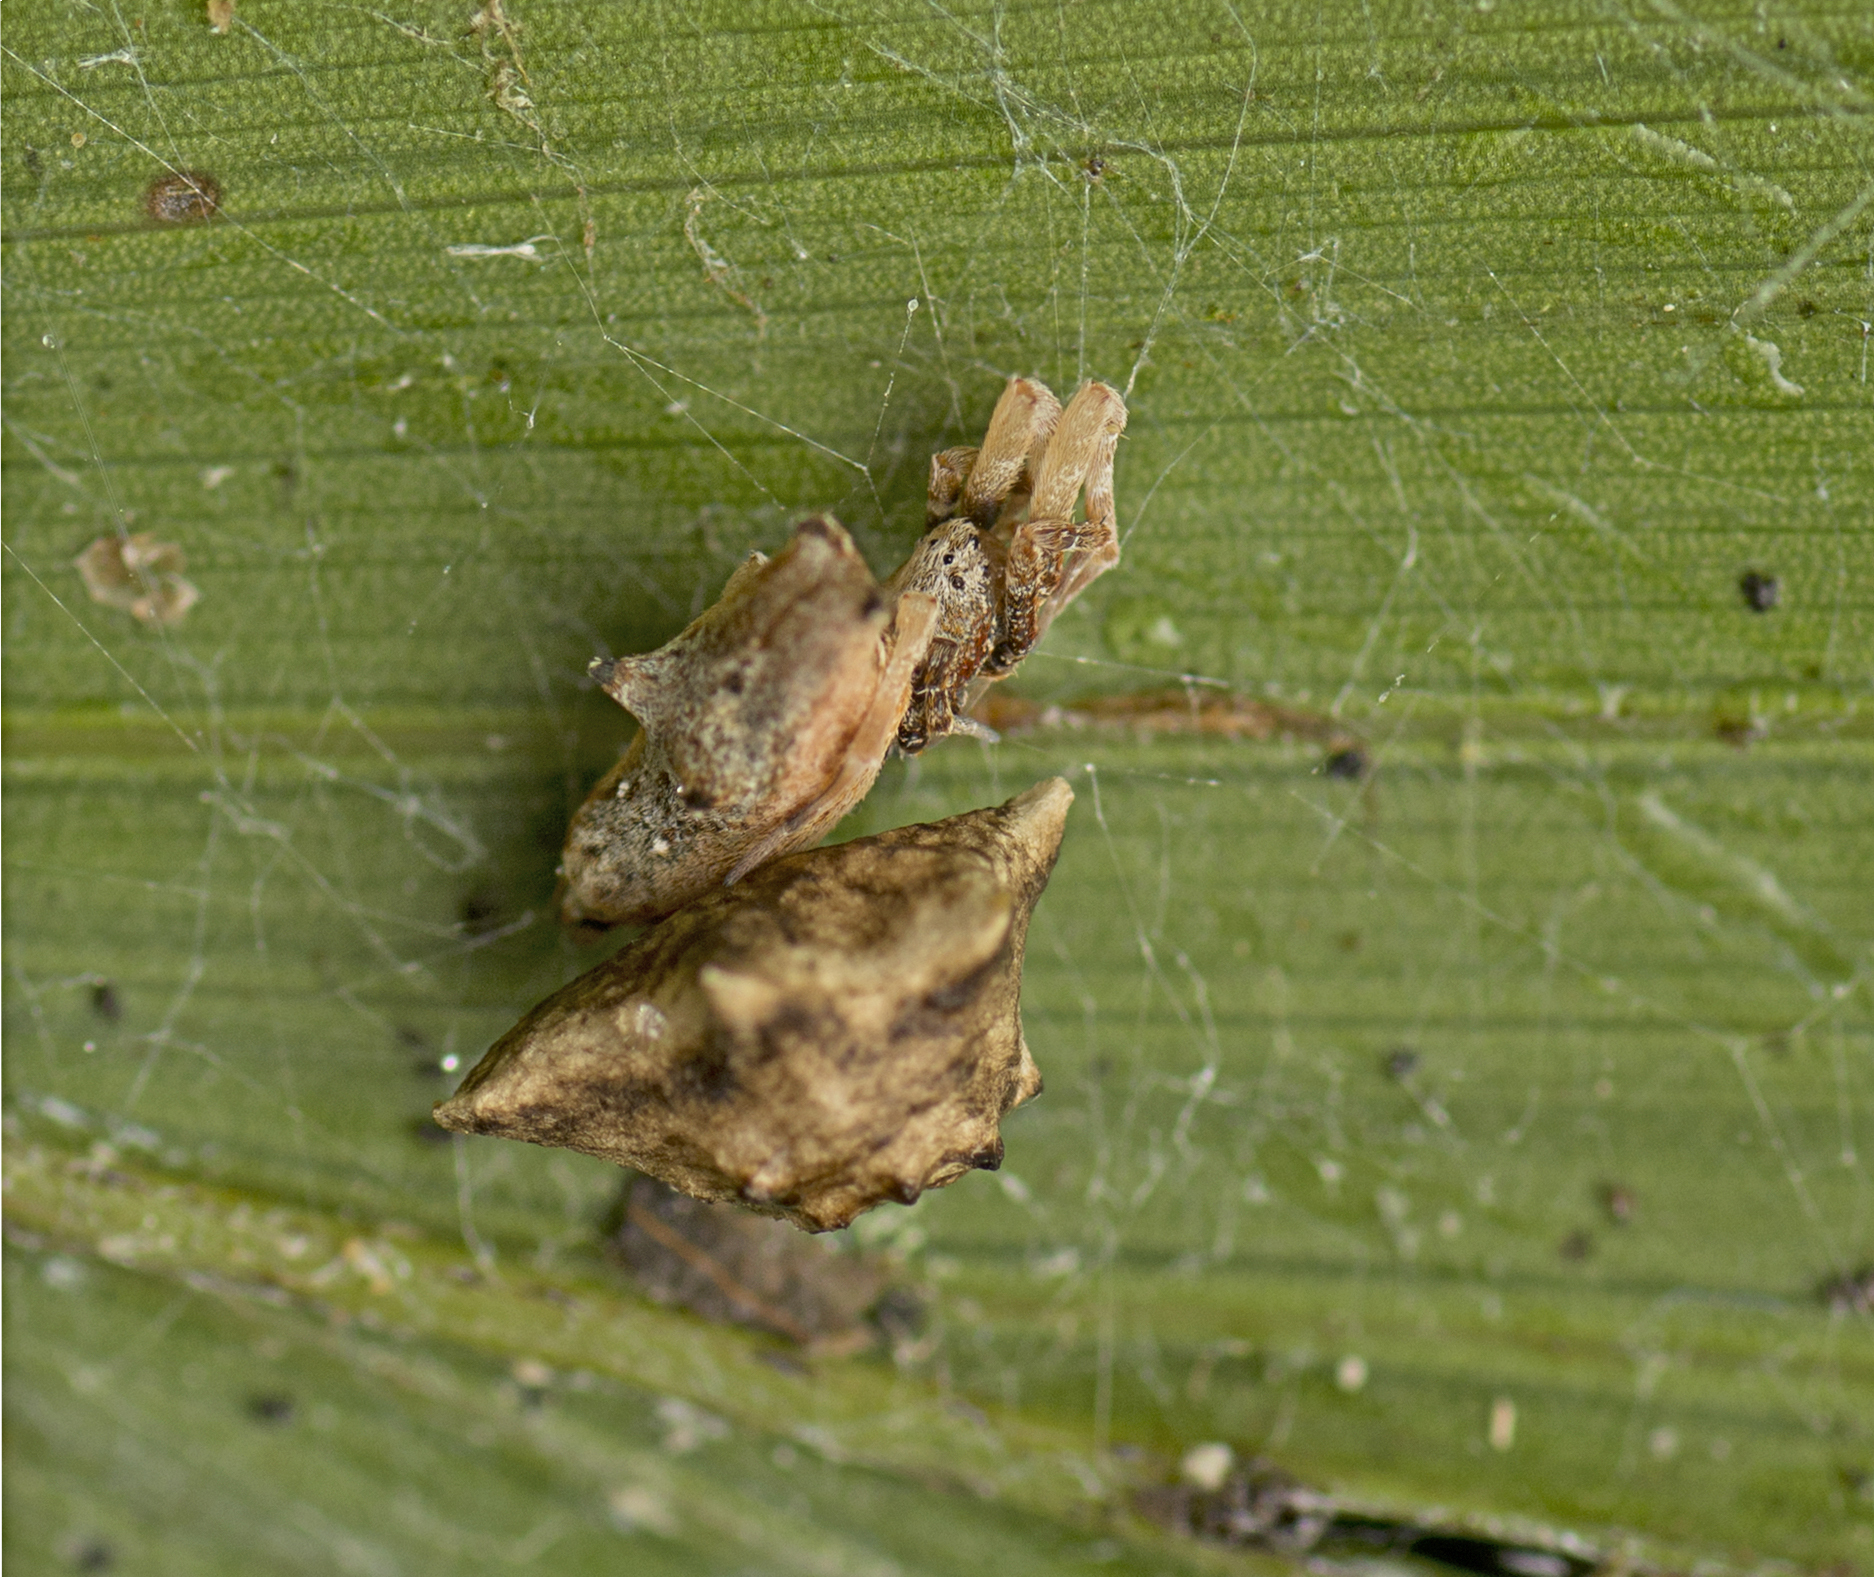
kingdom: Animalia
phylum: Arthropoda
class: Arachnida
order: Araneae
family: Uloboridae
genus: Philoponella
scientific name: Philoponella congregabilis
